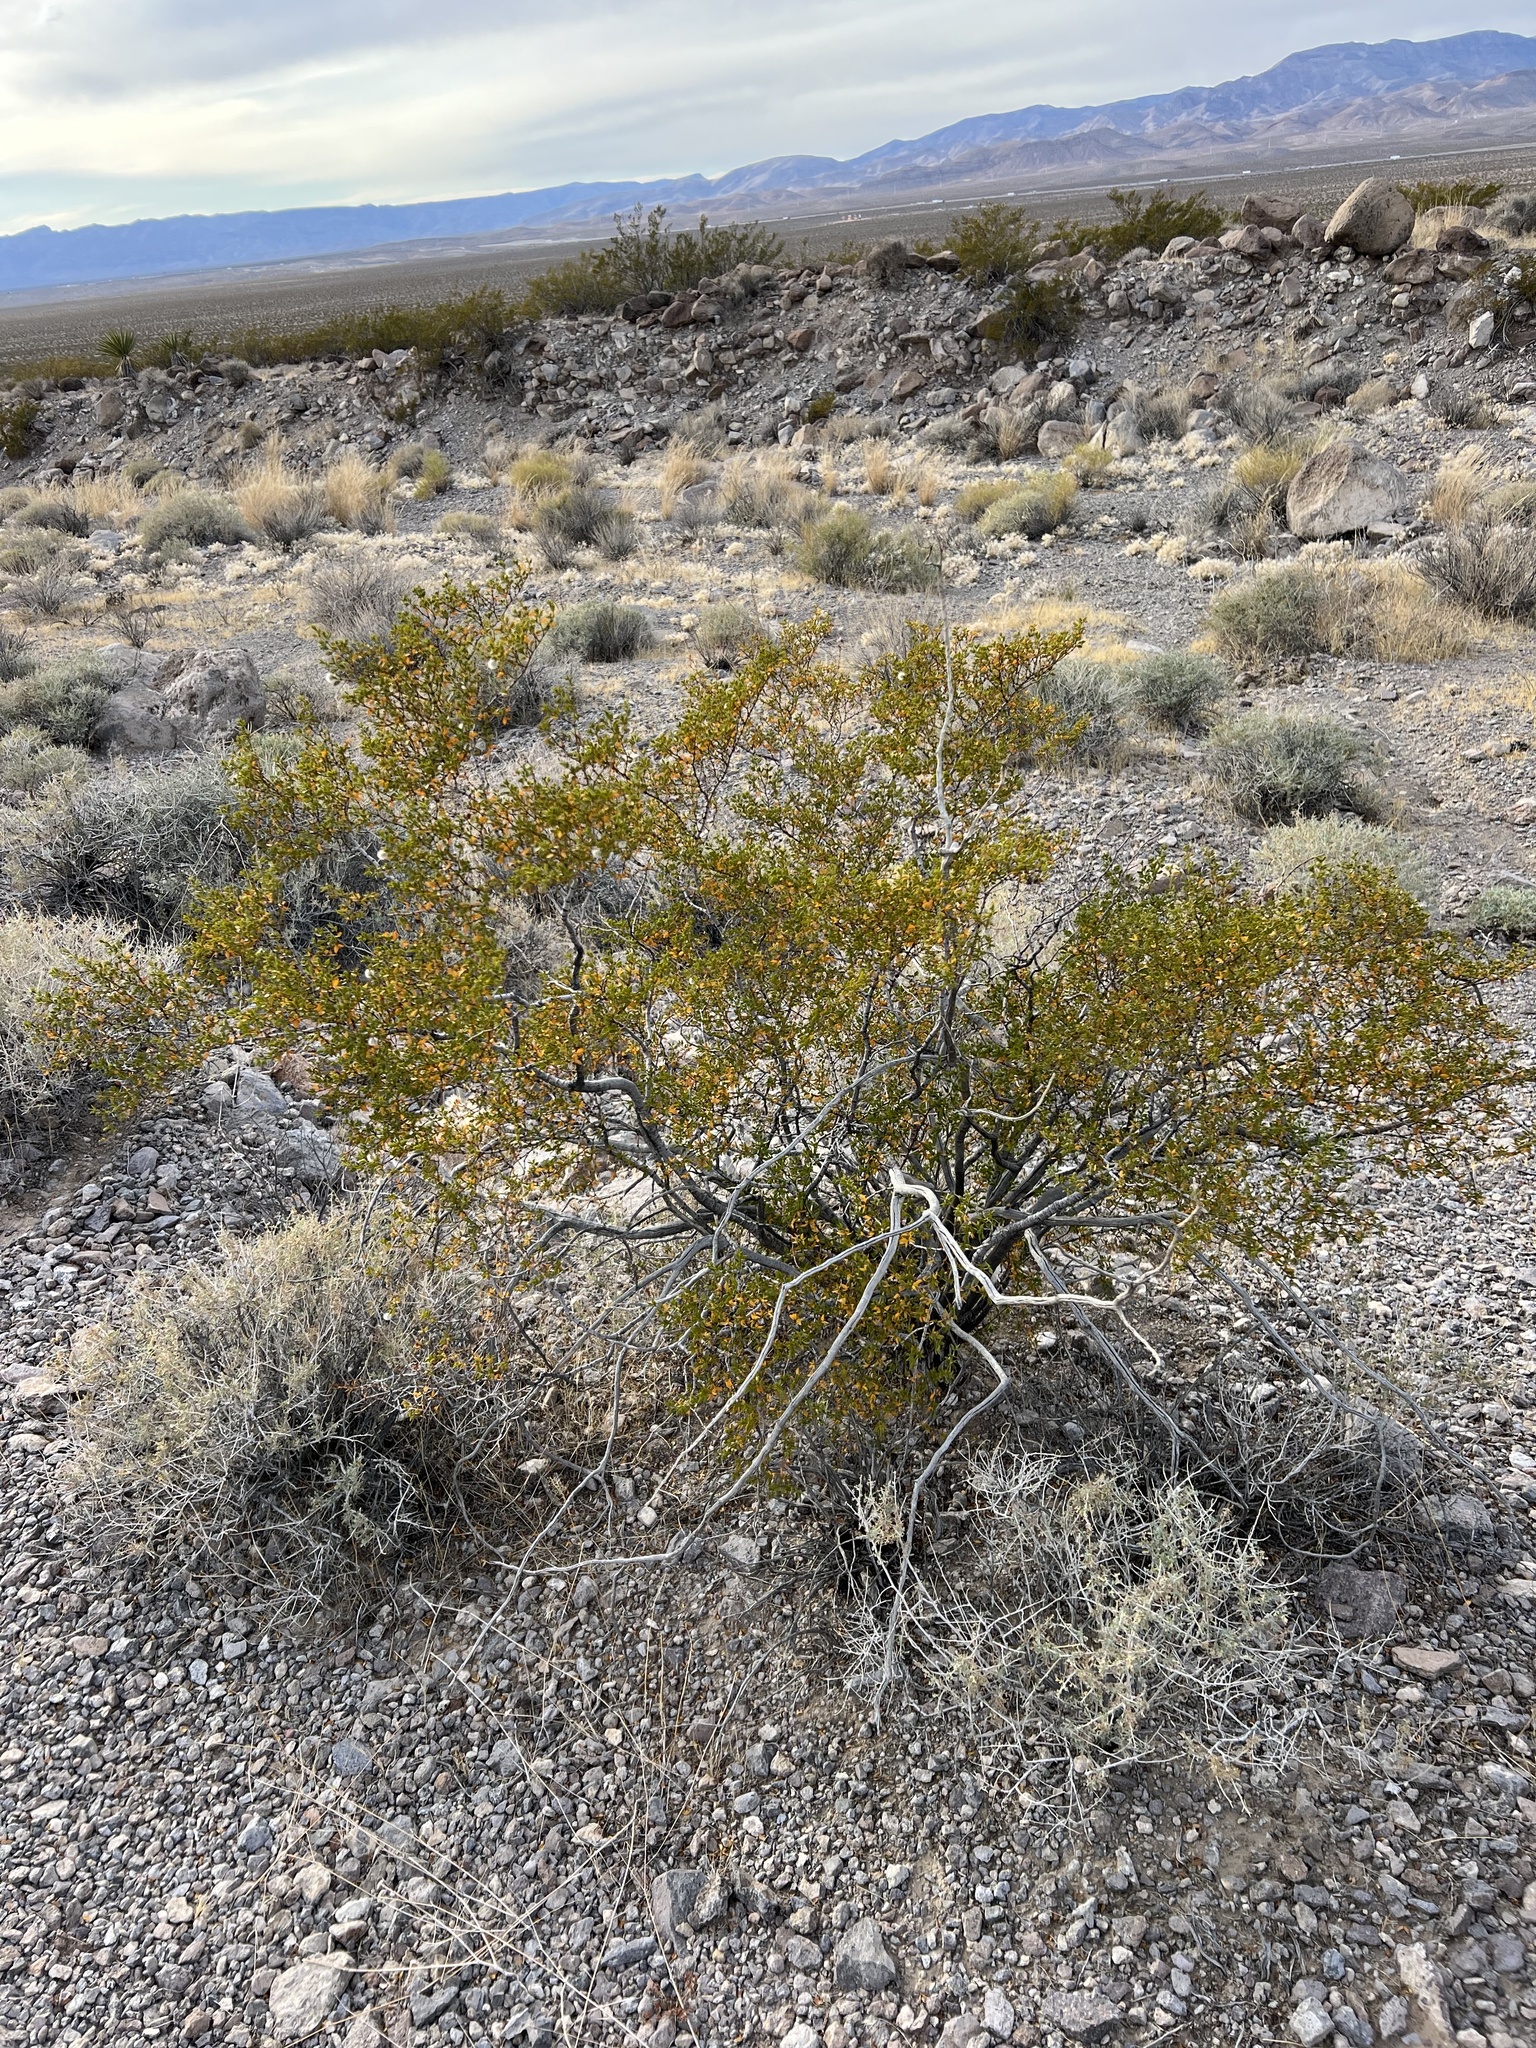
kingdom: Plantae
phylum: Tracheophyta
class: Magnoliopsida
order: Zygophyllales
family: Zygophyllaceae
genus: Larrea
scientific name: Larrea tridentata
